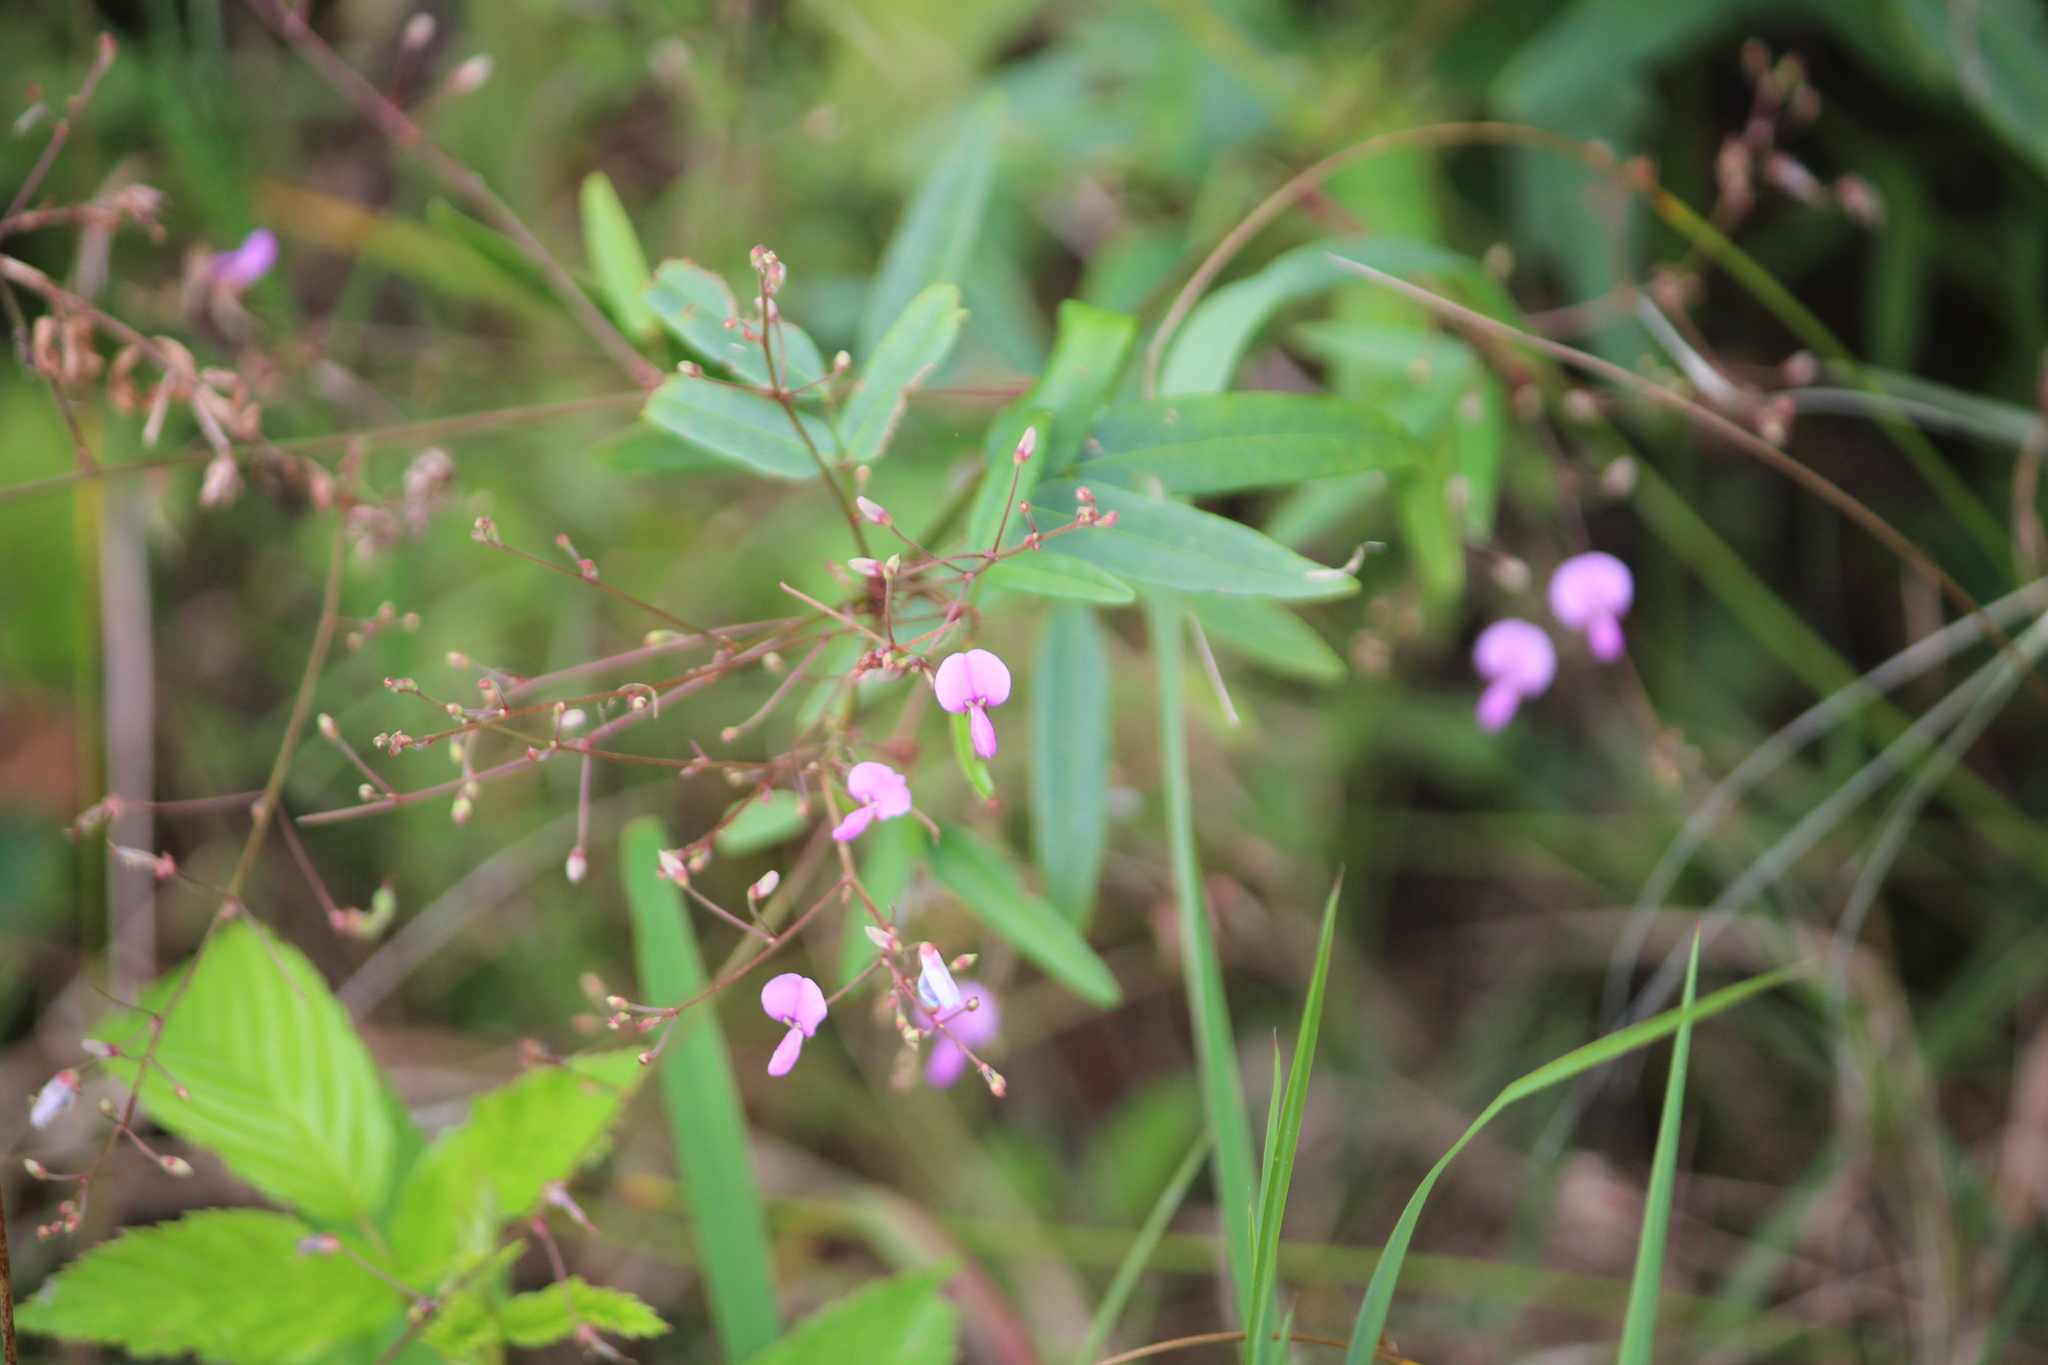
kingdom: Plantae
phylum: Tracheophyta
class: Magnoliopsida
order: Fabales
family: Fabaceae
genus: Desmodium
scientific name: Desmodium paniculatum
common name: Panicled tick-clover
